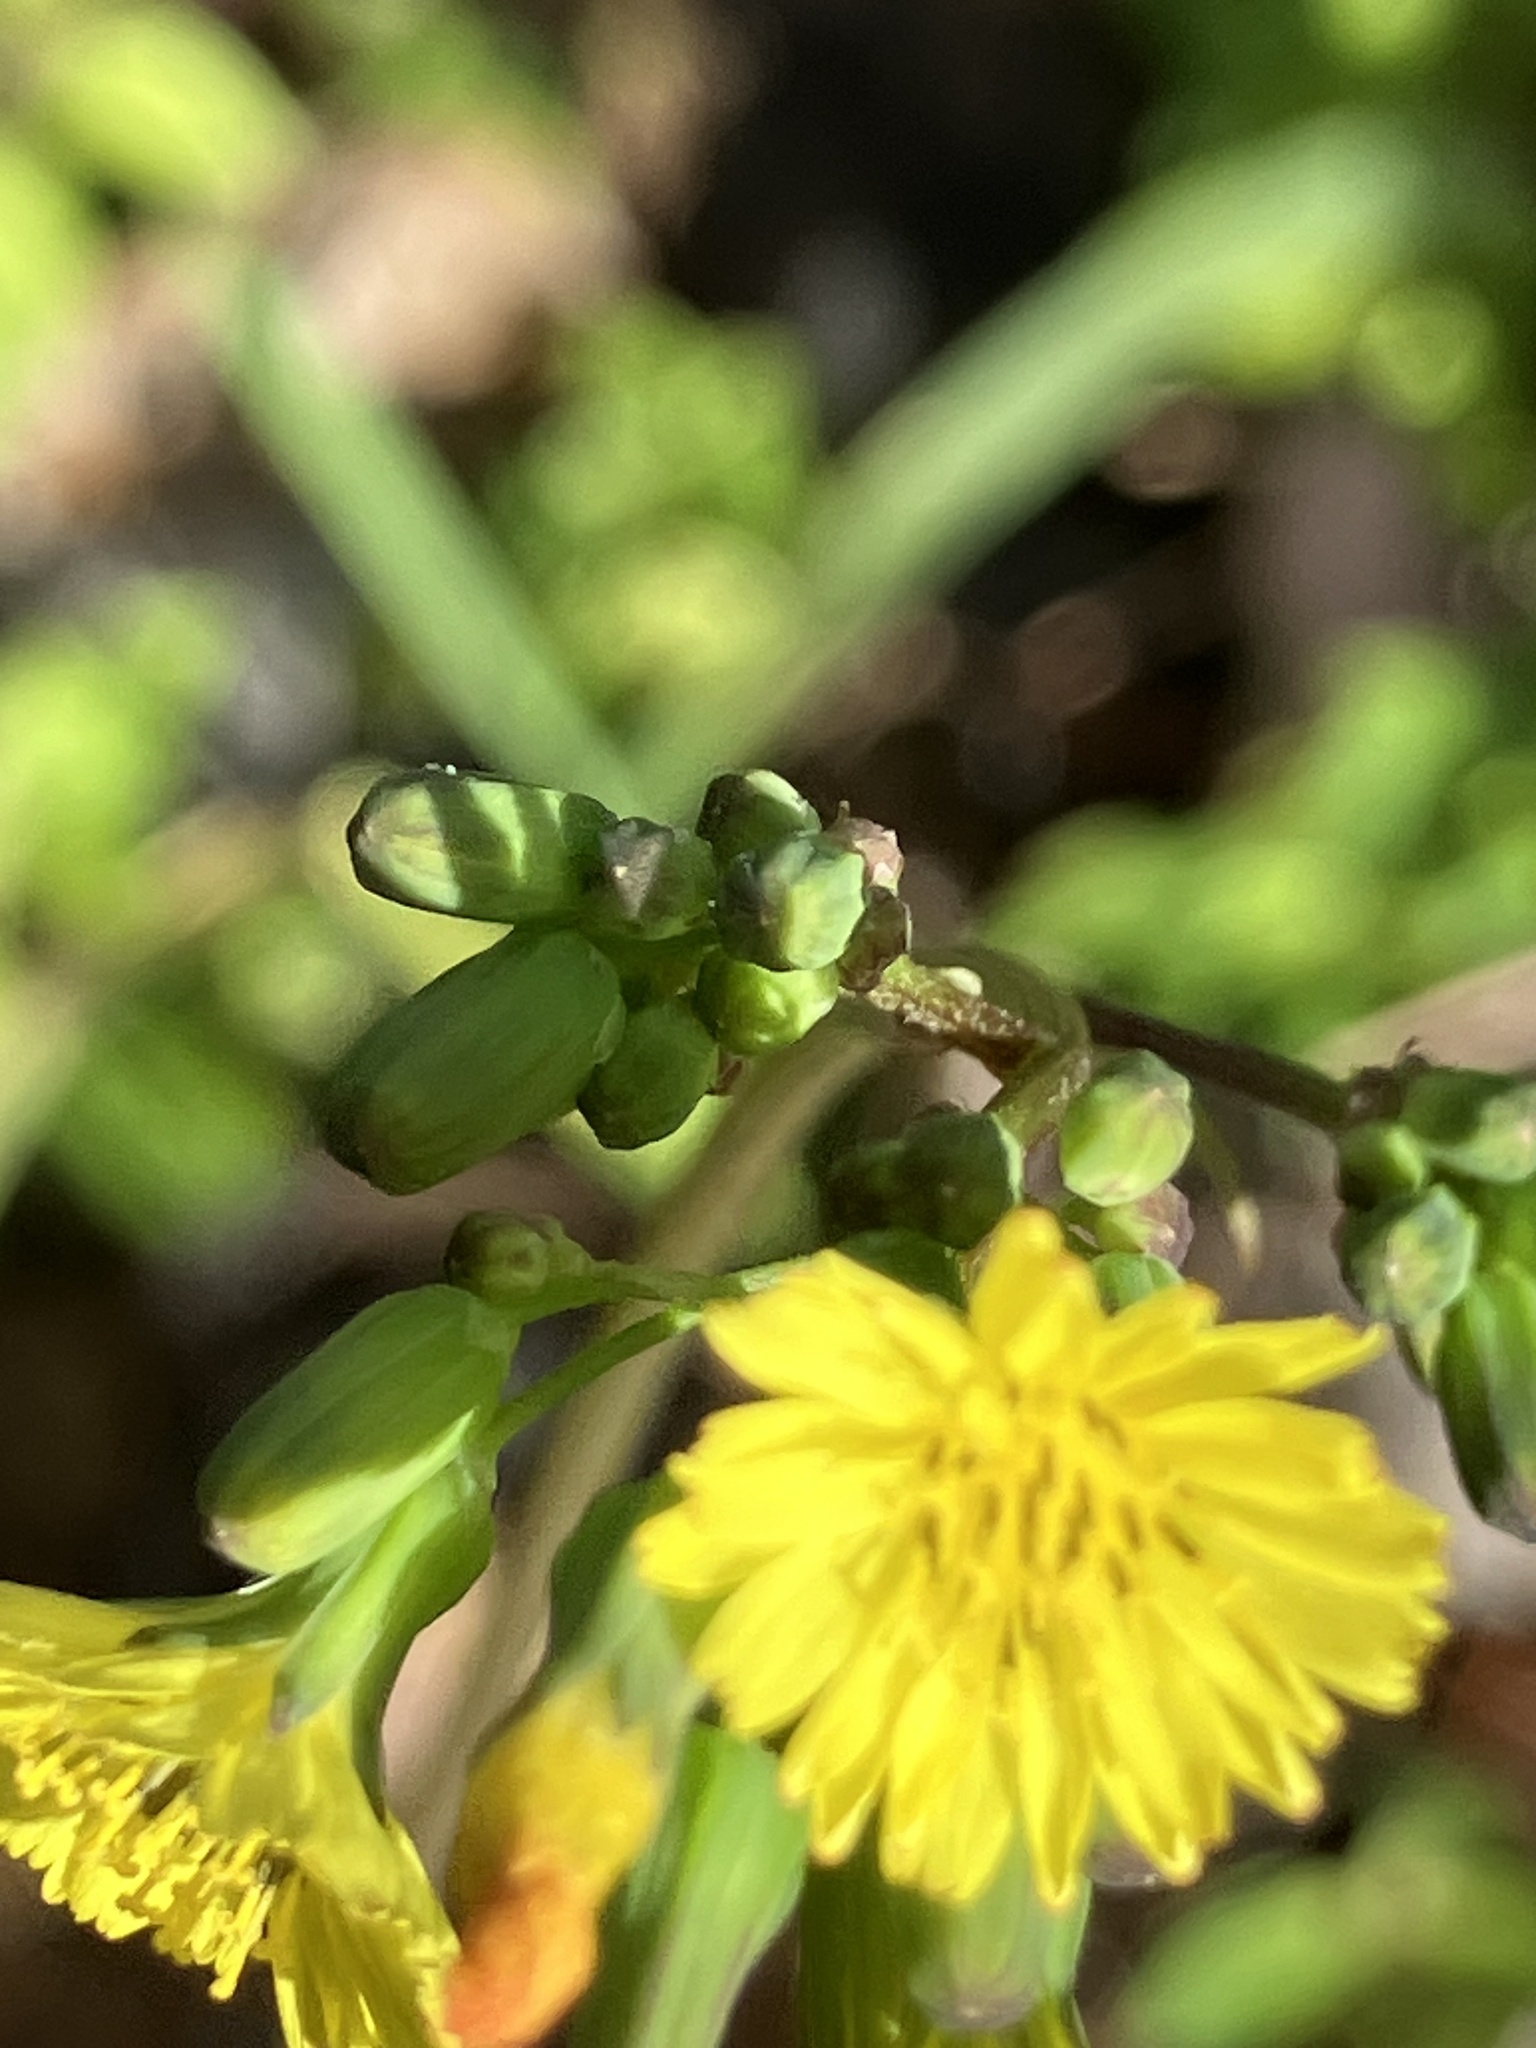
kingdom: Plantae
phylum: Tracheophyta
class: Magnoliopsida
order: Asterales
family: Asteraceae
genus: Youngia
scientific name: Youngia japonica
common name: Oriental false hawksbeard
